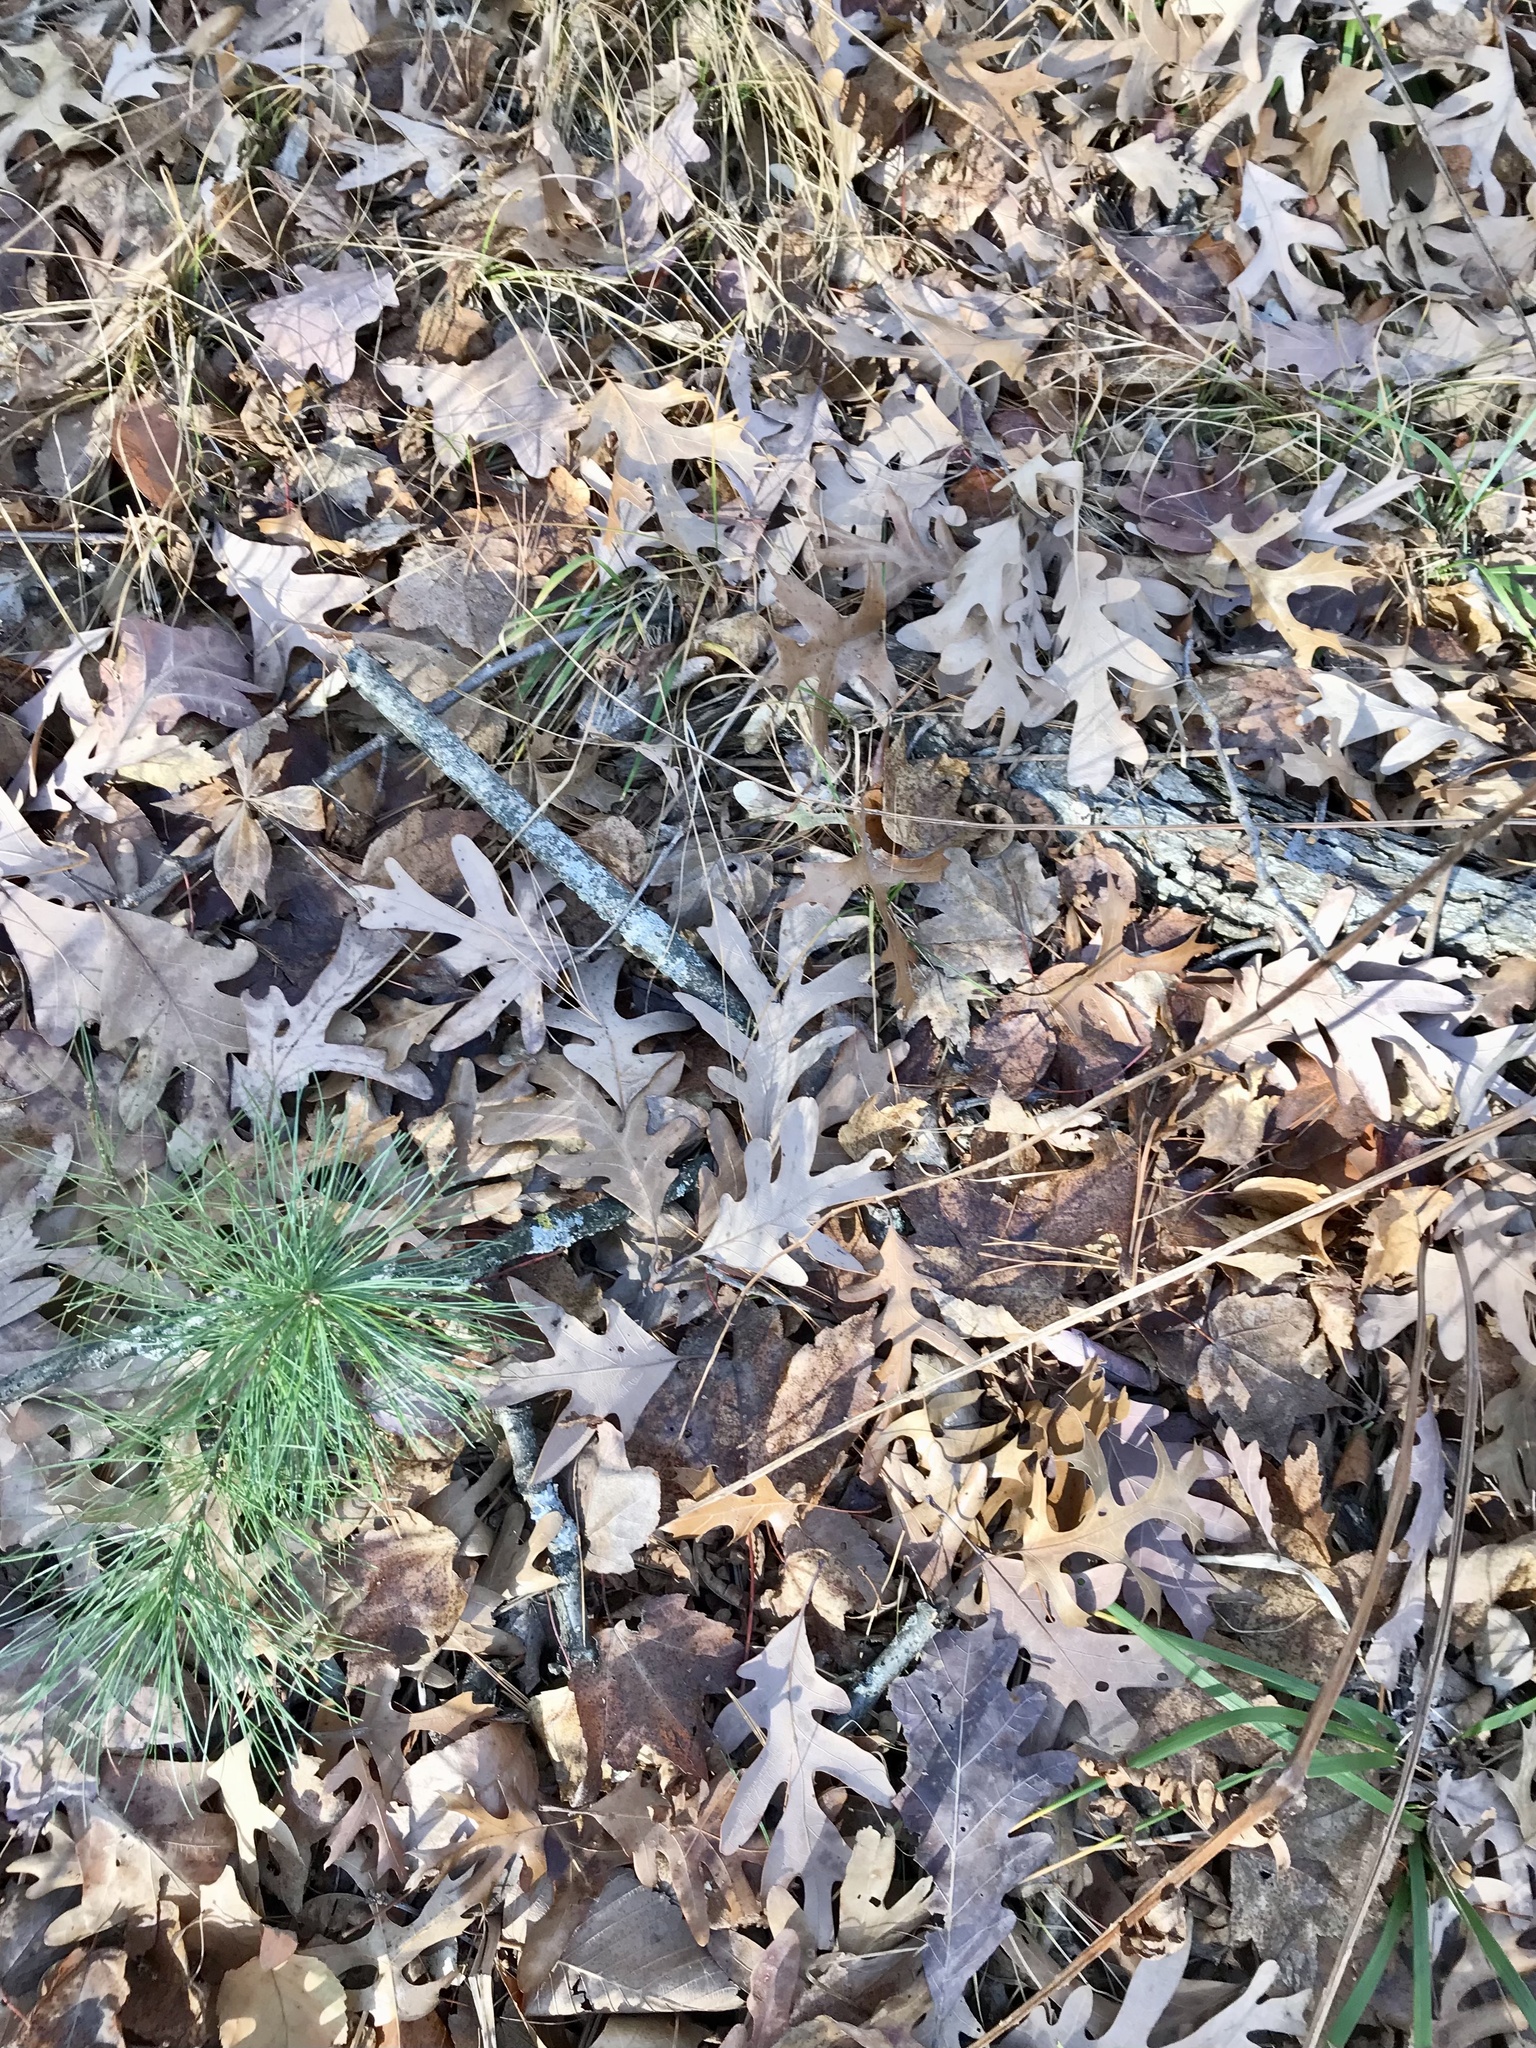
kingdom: Plantae
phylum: Tracheophyta
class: Magnoliopsida
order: Fagales
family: Fagaceae
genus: Quercus
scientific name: Quercus alba
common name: White oak
